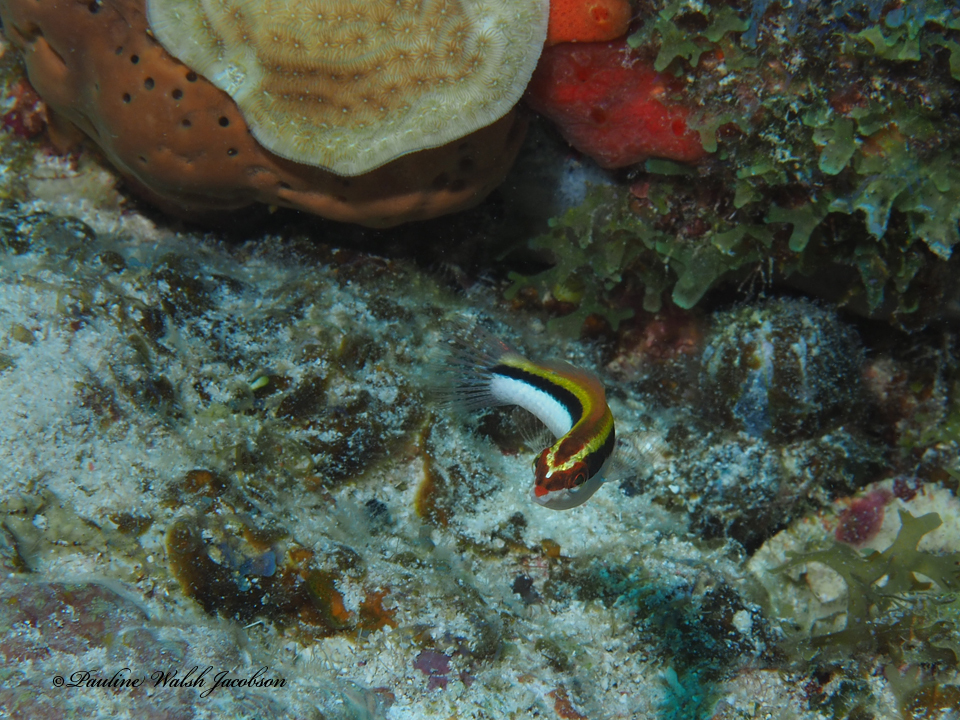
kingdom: Animalia
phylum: Chordata
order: Perciformes
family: Labridae
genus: Halichoeres
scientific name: Halichoeres maculipinna
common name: Clown wrasse
